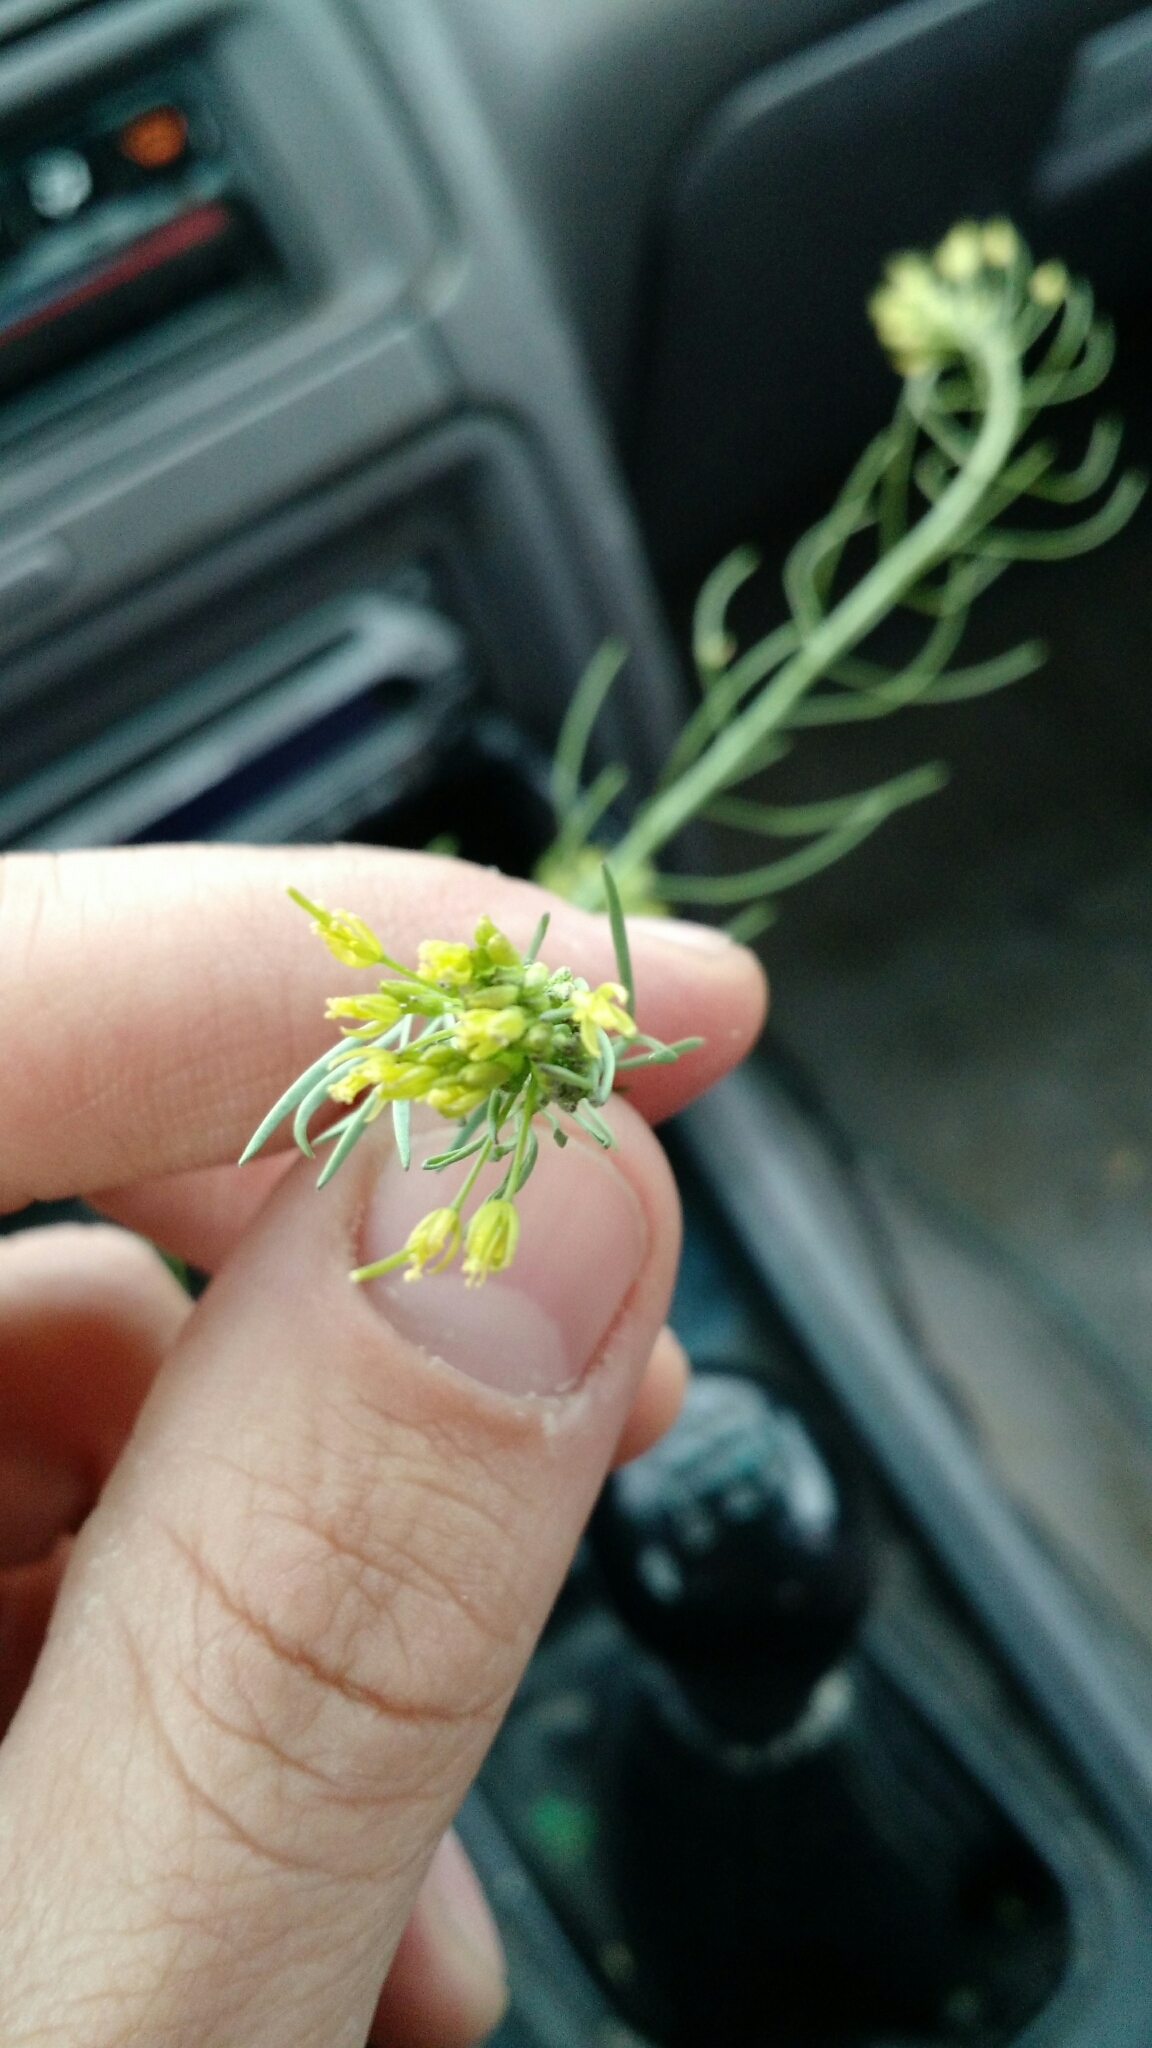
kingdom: Plantae
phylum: Tracheophyta
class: Magnoliopsida
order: Brassicales
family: Brassicaceae
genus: Descurainia
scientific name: Descurainia sophia
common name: Flixweed
